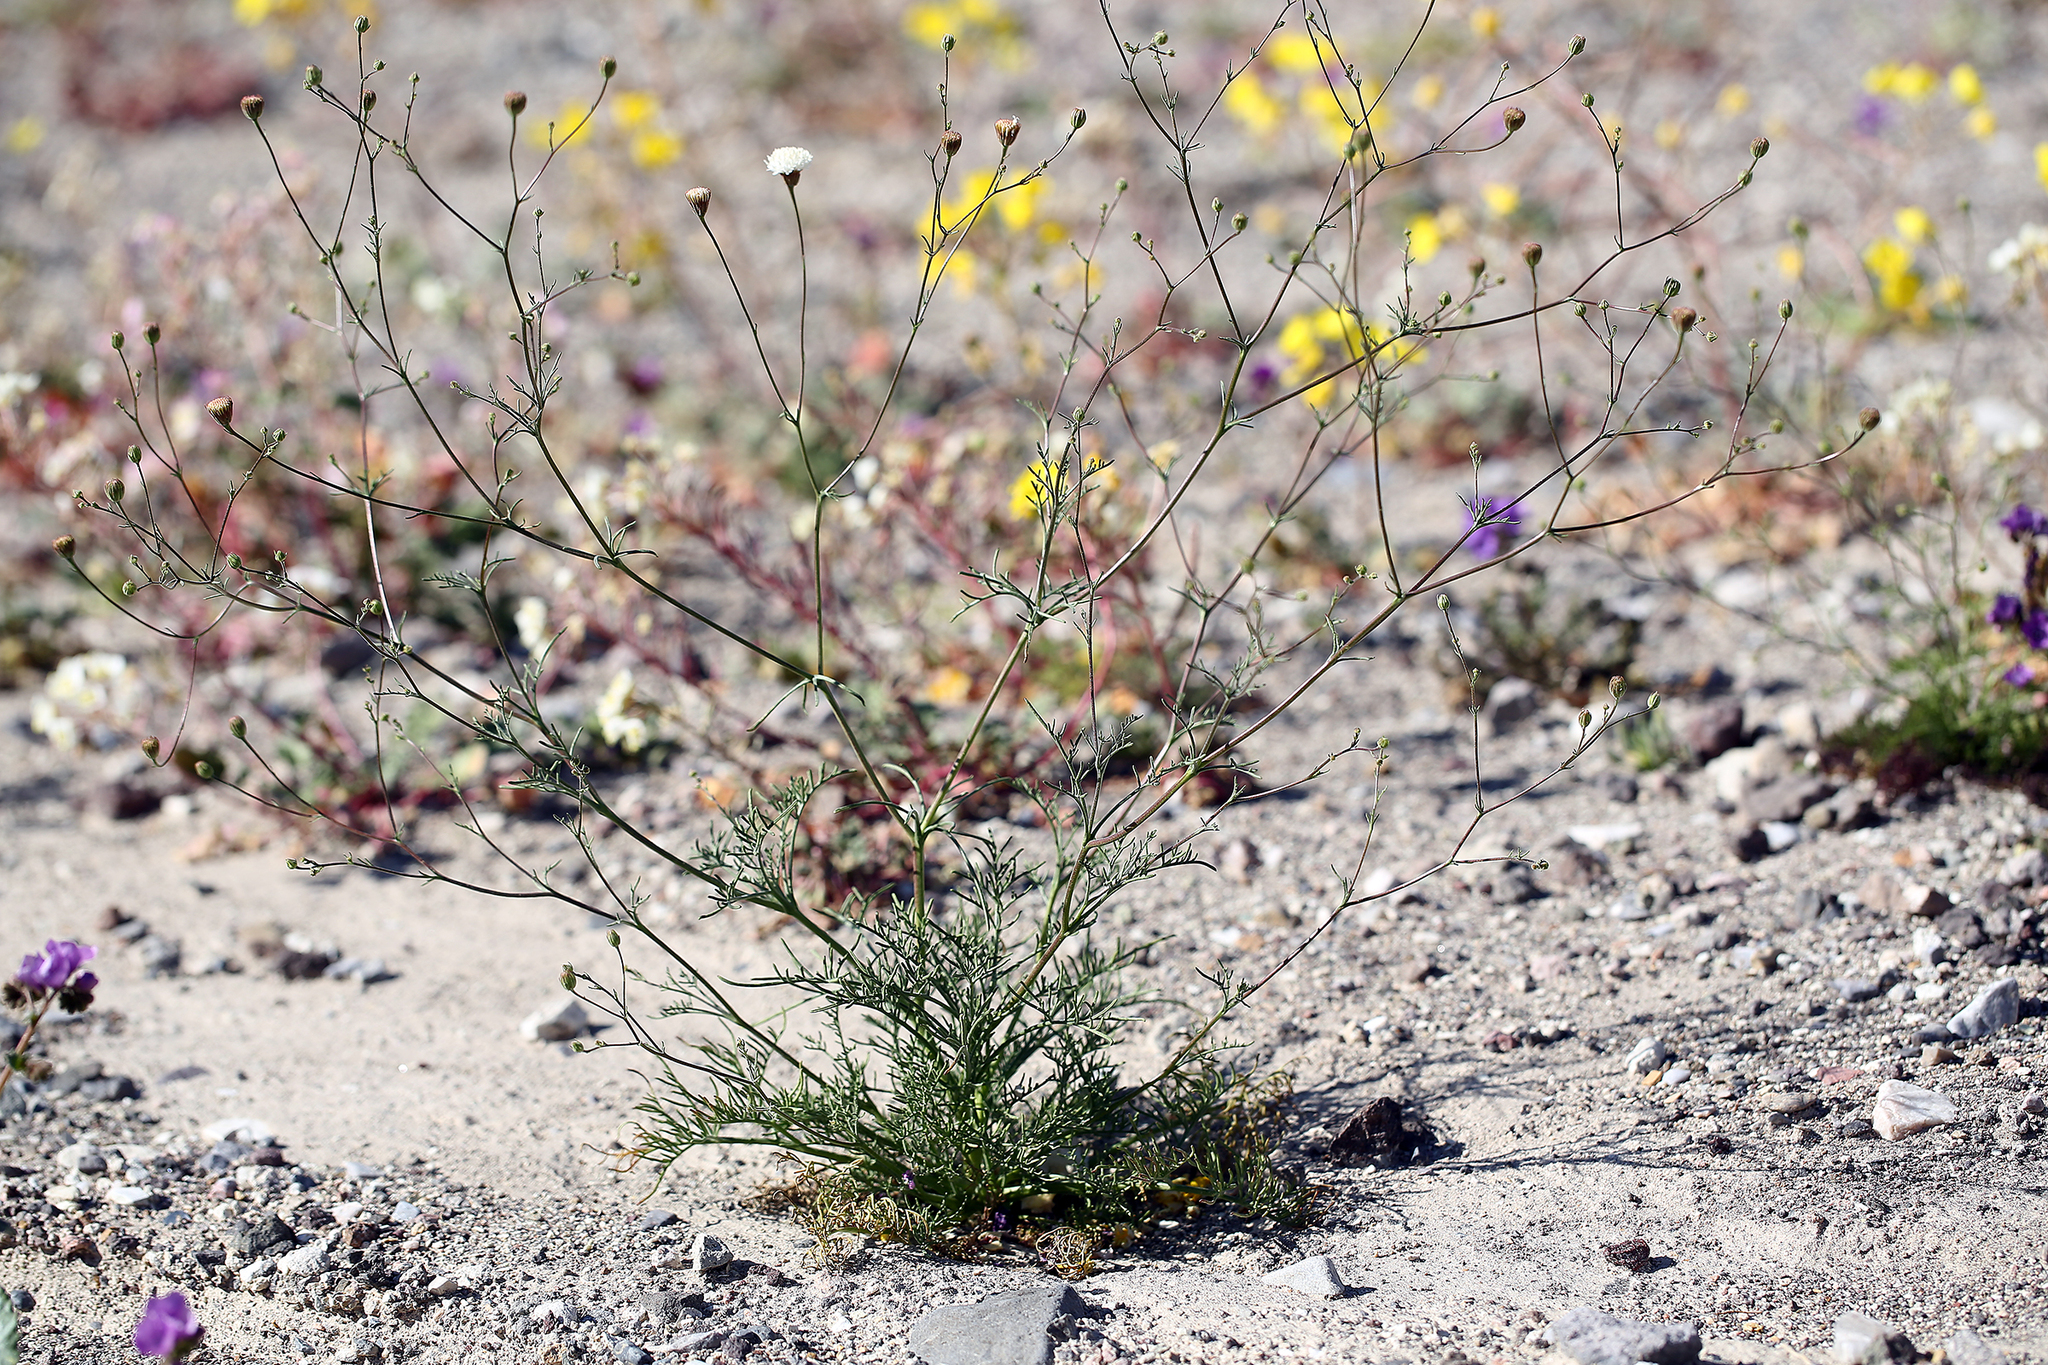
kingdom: Plantae
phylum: Tracheophyta
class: Magnoliopsida
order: Asterales
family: Asteraceae
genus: Chaenactis
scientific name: Chaenactis carphoclinia
